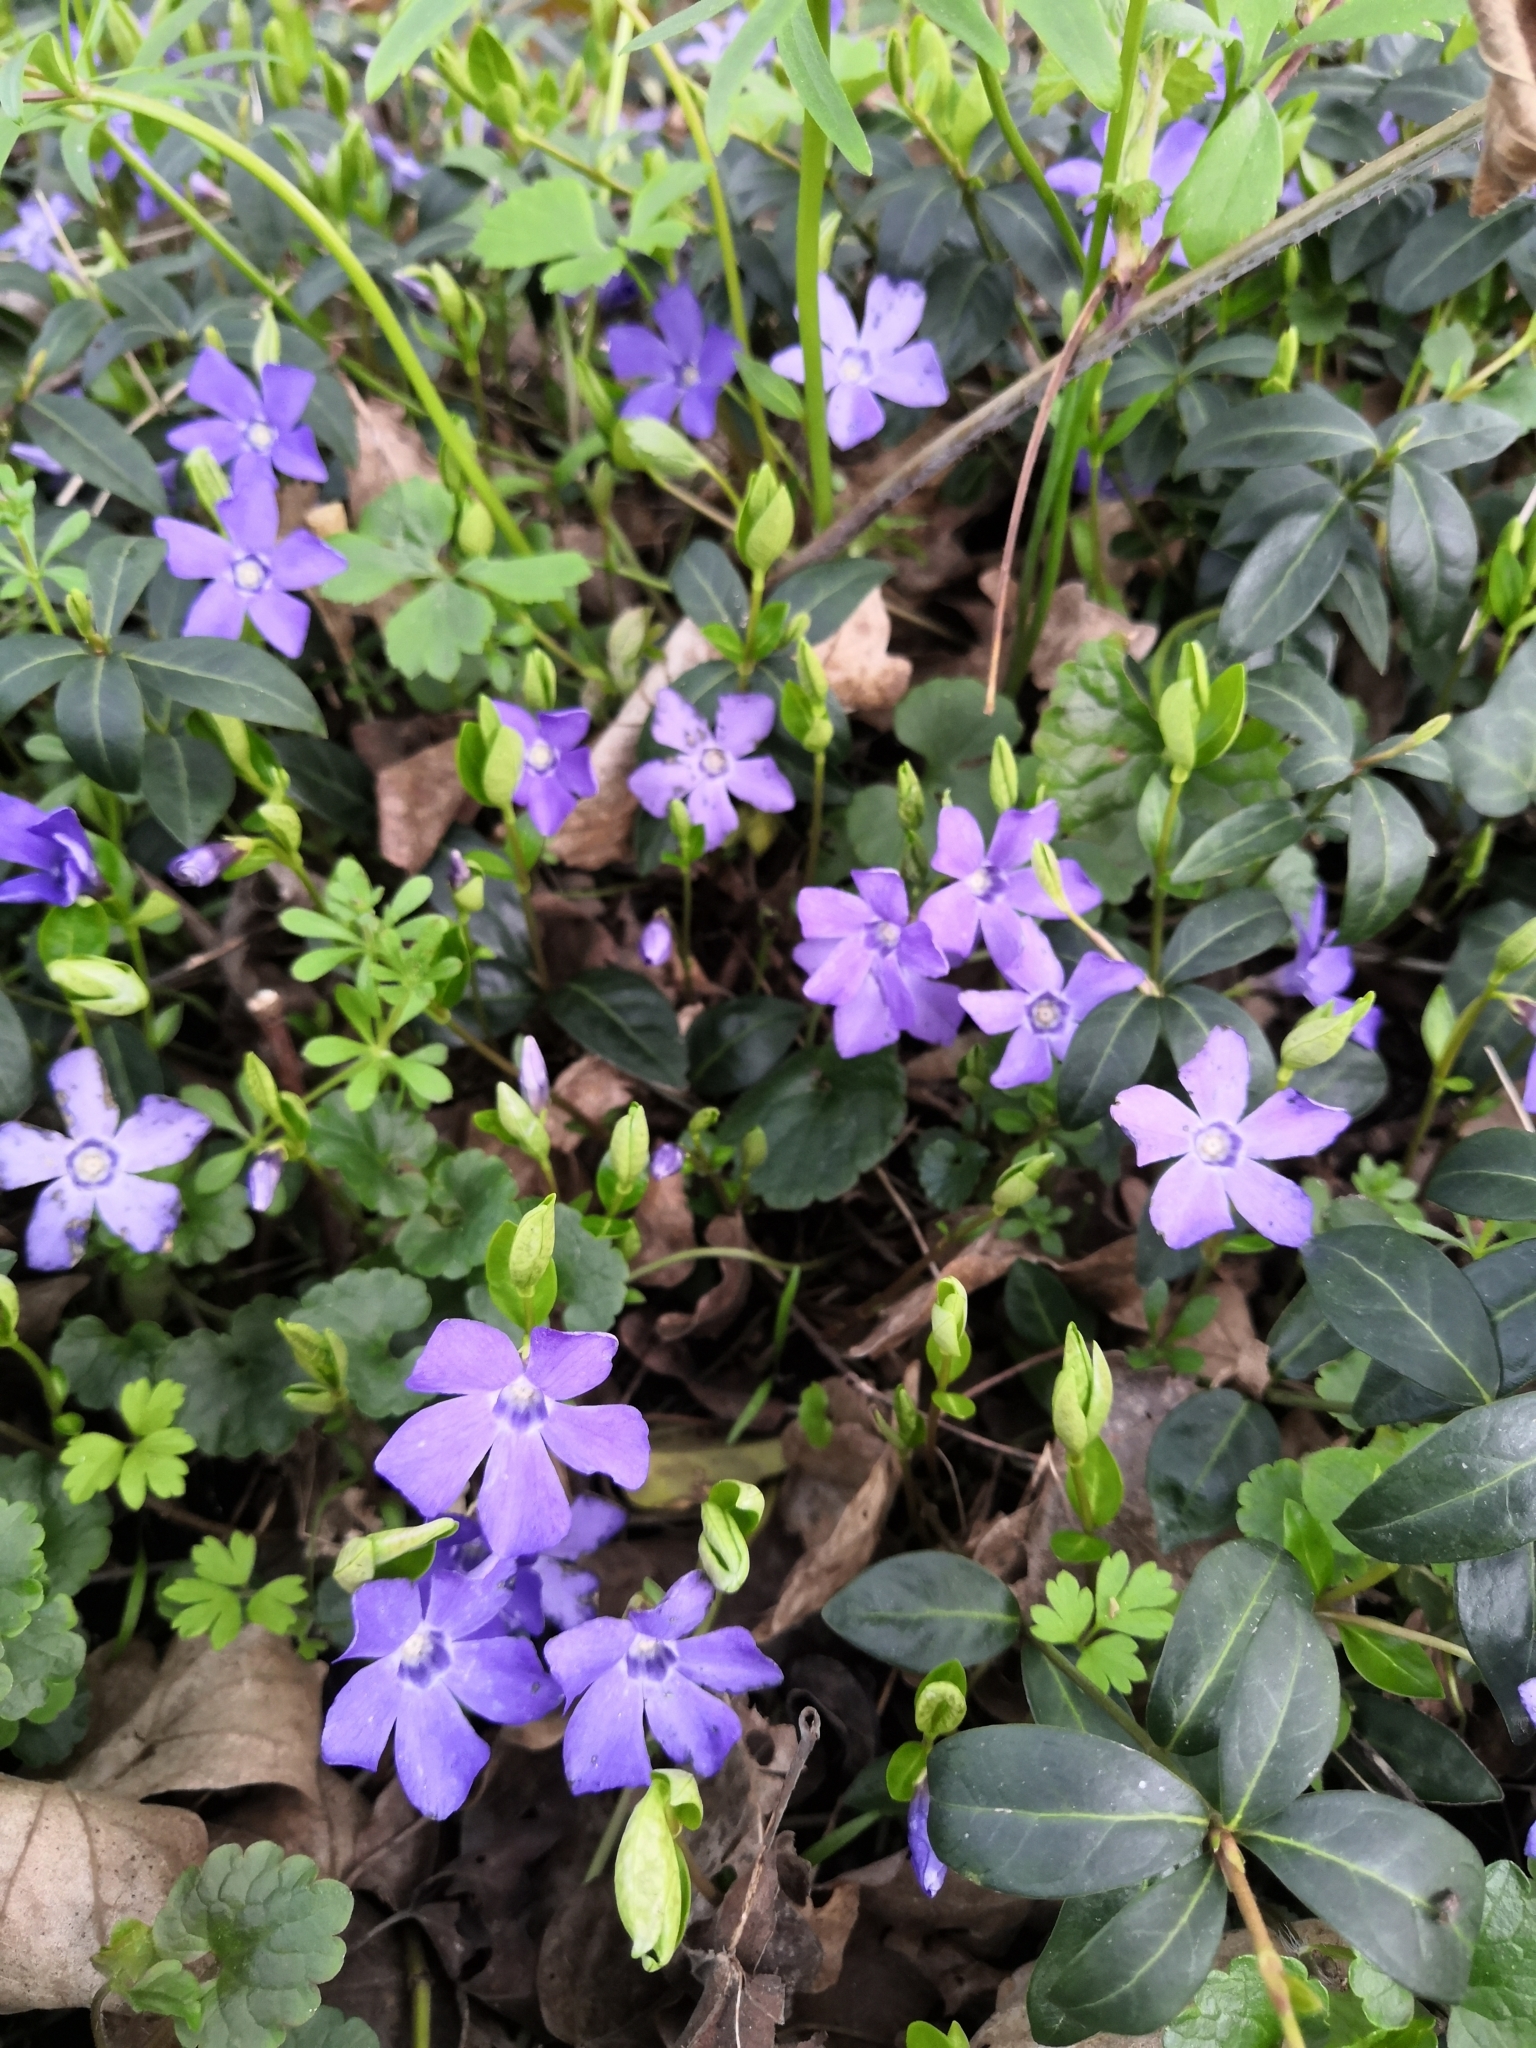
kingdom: Plantae
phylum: Tracheophyta
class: Magnoliopsida
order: Gentianales
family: Apocynaceae
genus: Vinca
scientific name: Vinca minor
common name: Lesser periwinkle
